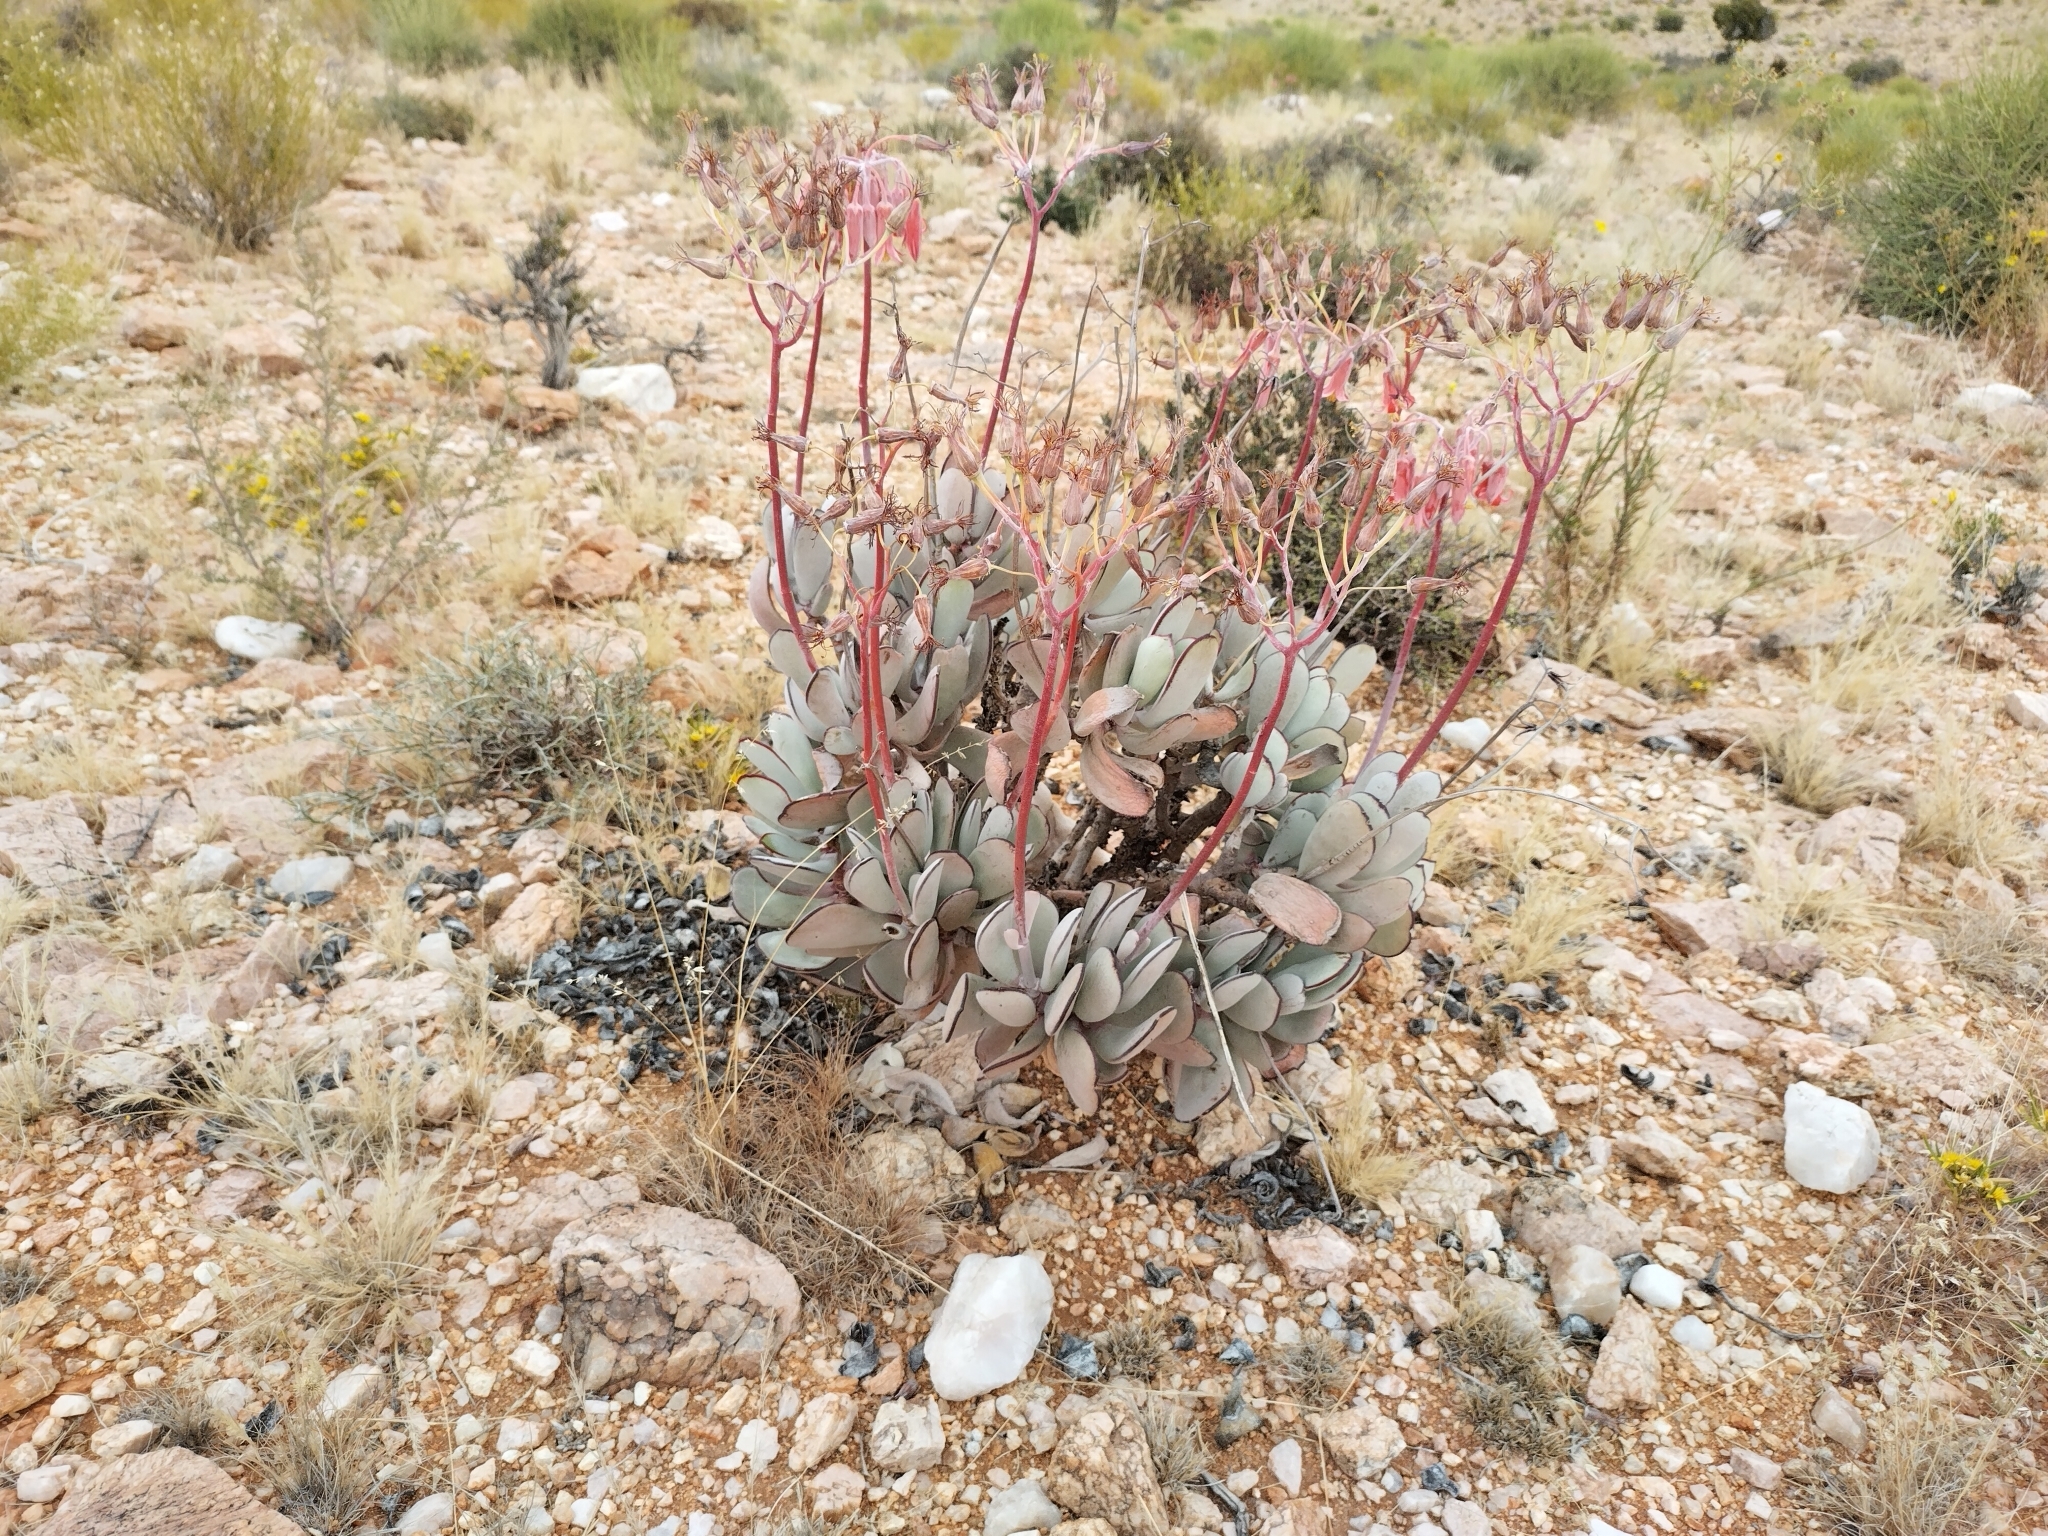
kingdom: Plantae
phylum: Tracheophyta
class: Magnoliopsida
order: Saxifragales
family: Crassulaceae
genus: Cotyledon
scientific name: Cotyledon orbiculata
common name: Pig's ear
